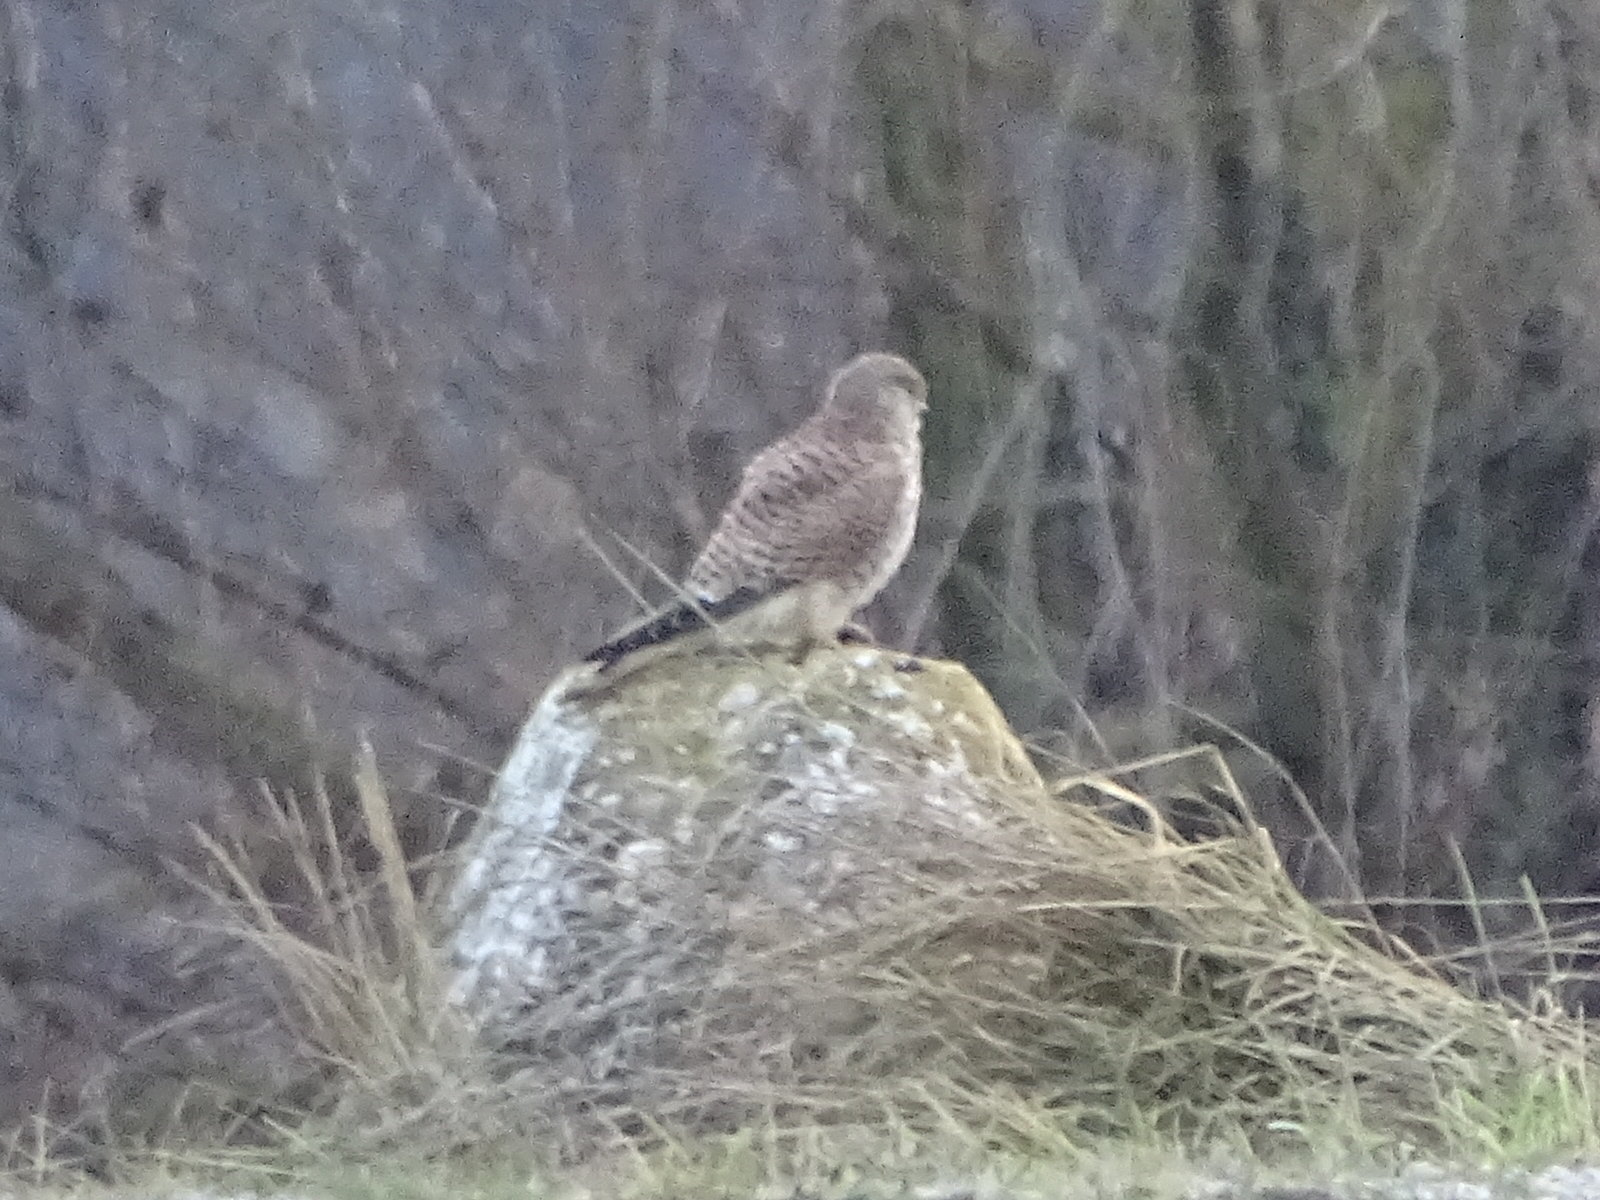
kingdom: Animalia
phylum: Chordata
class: Aves
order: Falconiformes
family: Falconidae
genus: Falco
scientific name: Falco tinnunculus
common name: Common kestrel
